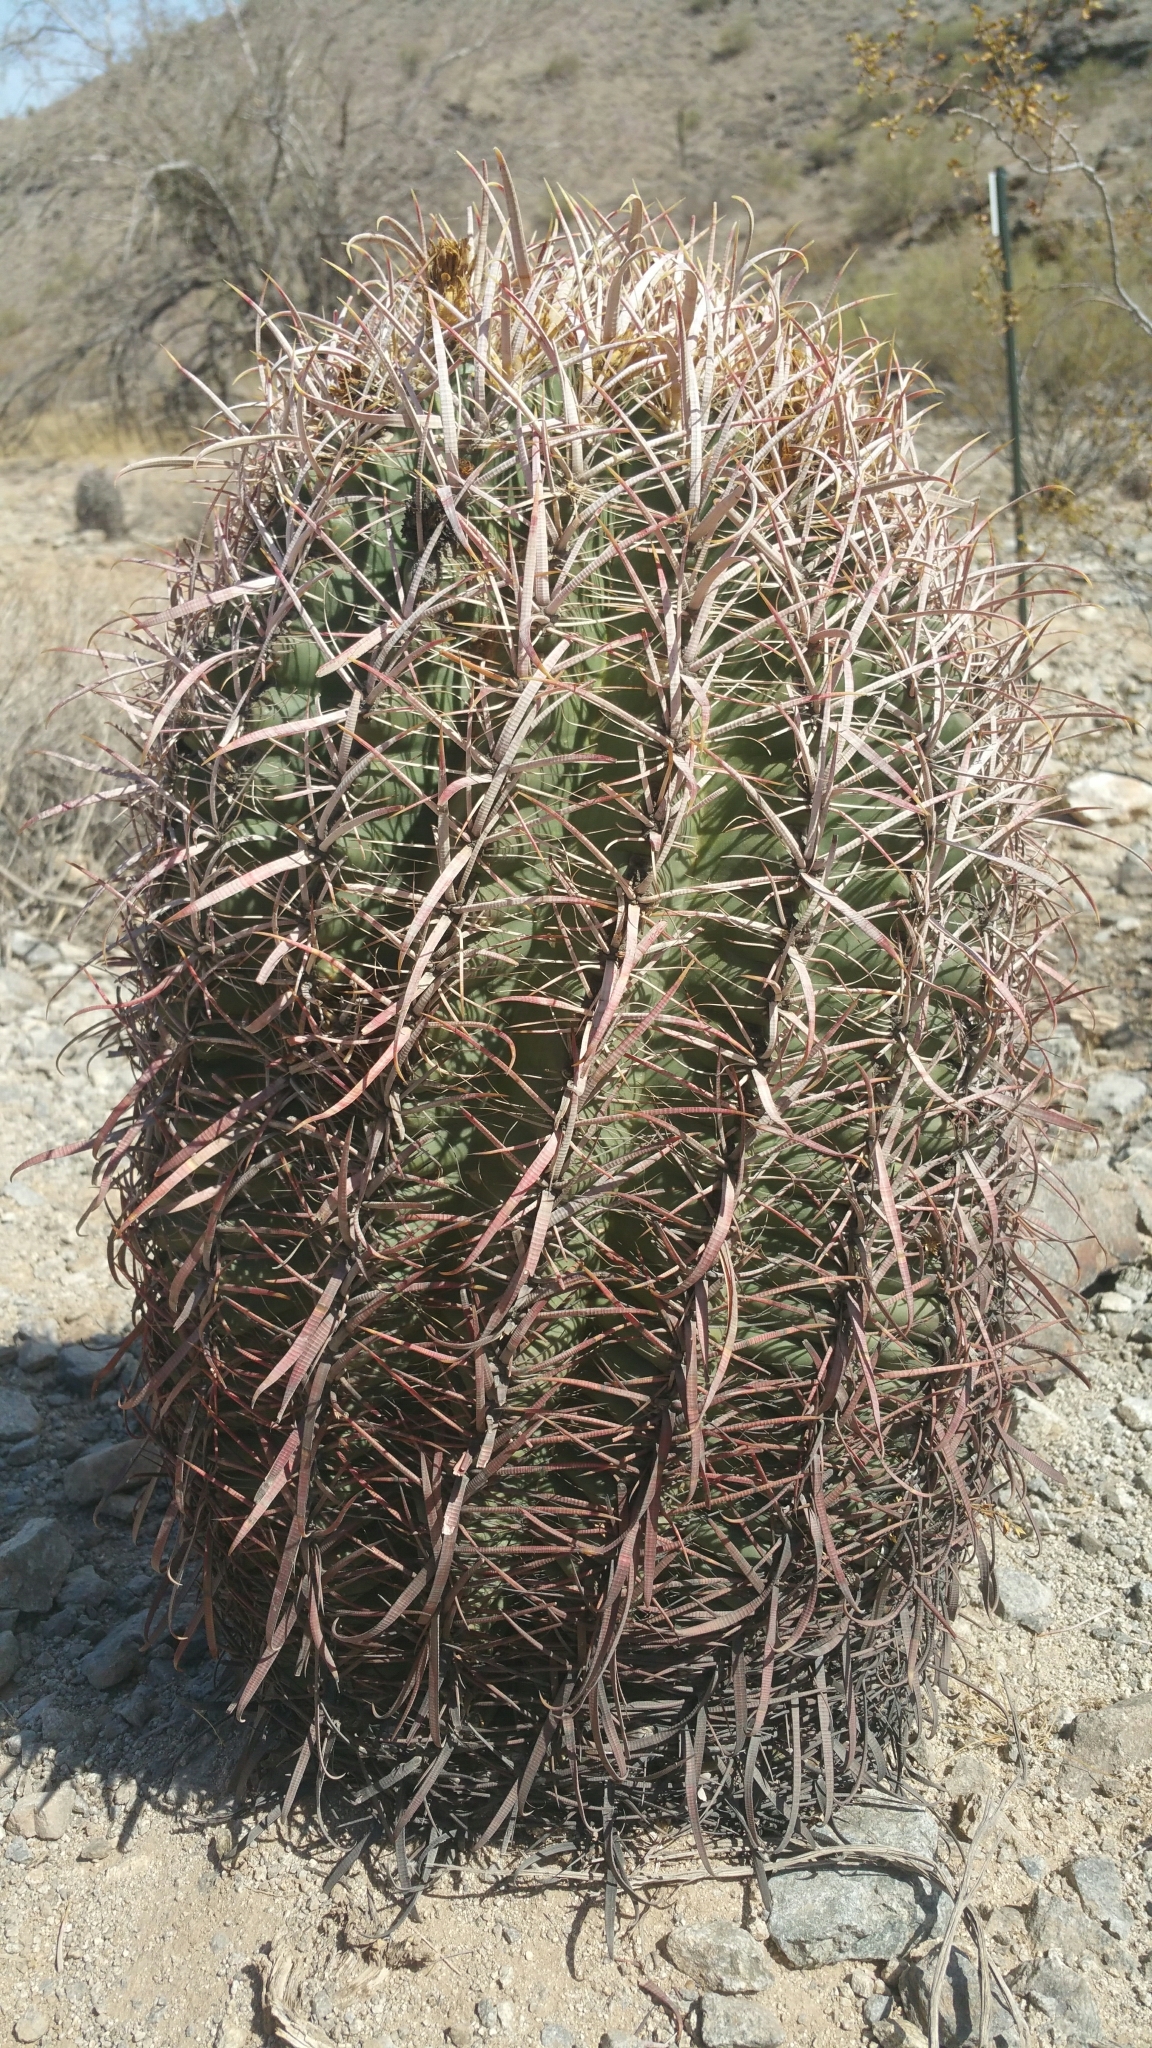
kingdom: Plantae
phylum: Tracheophyta
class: Magnoliopsida
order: Caryophyllales
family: Cactaceae
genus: Ferocactus
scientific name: Ferocactus cylindraceus
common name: California barrel cactus
